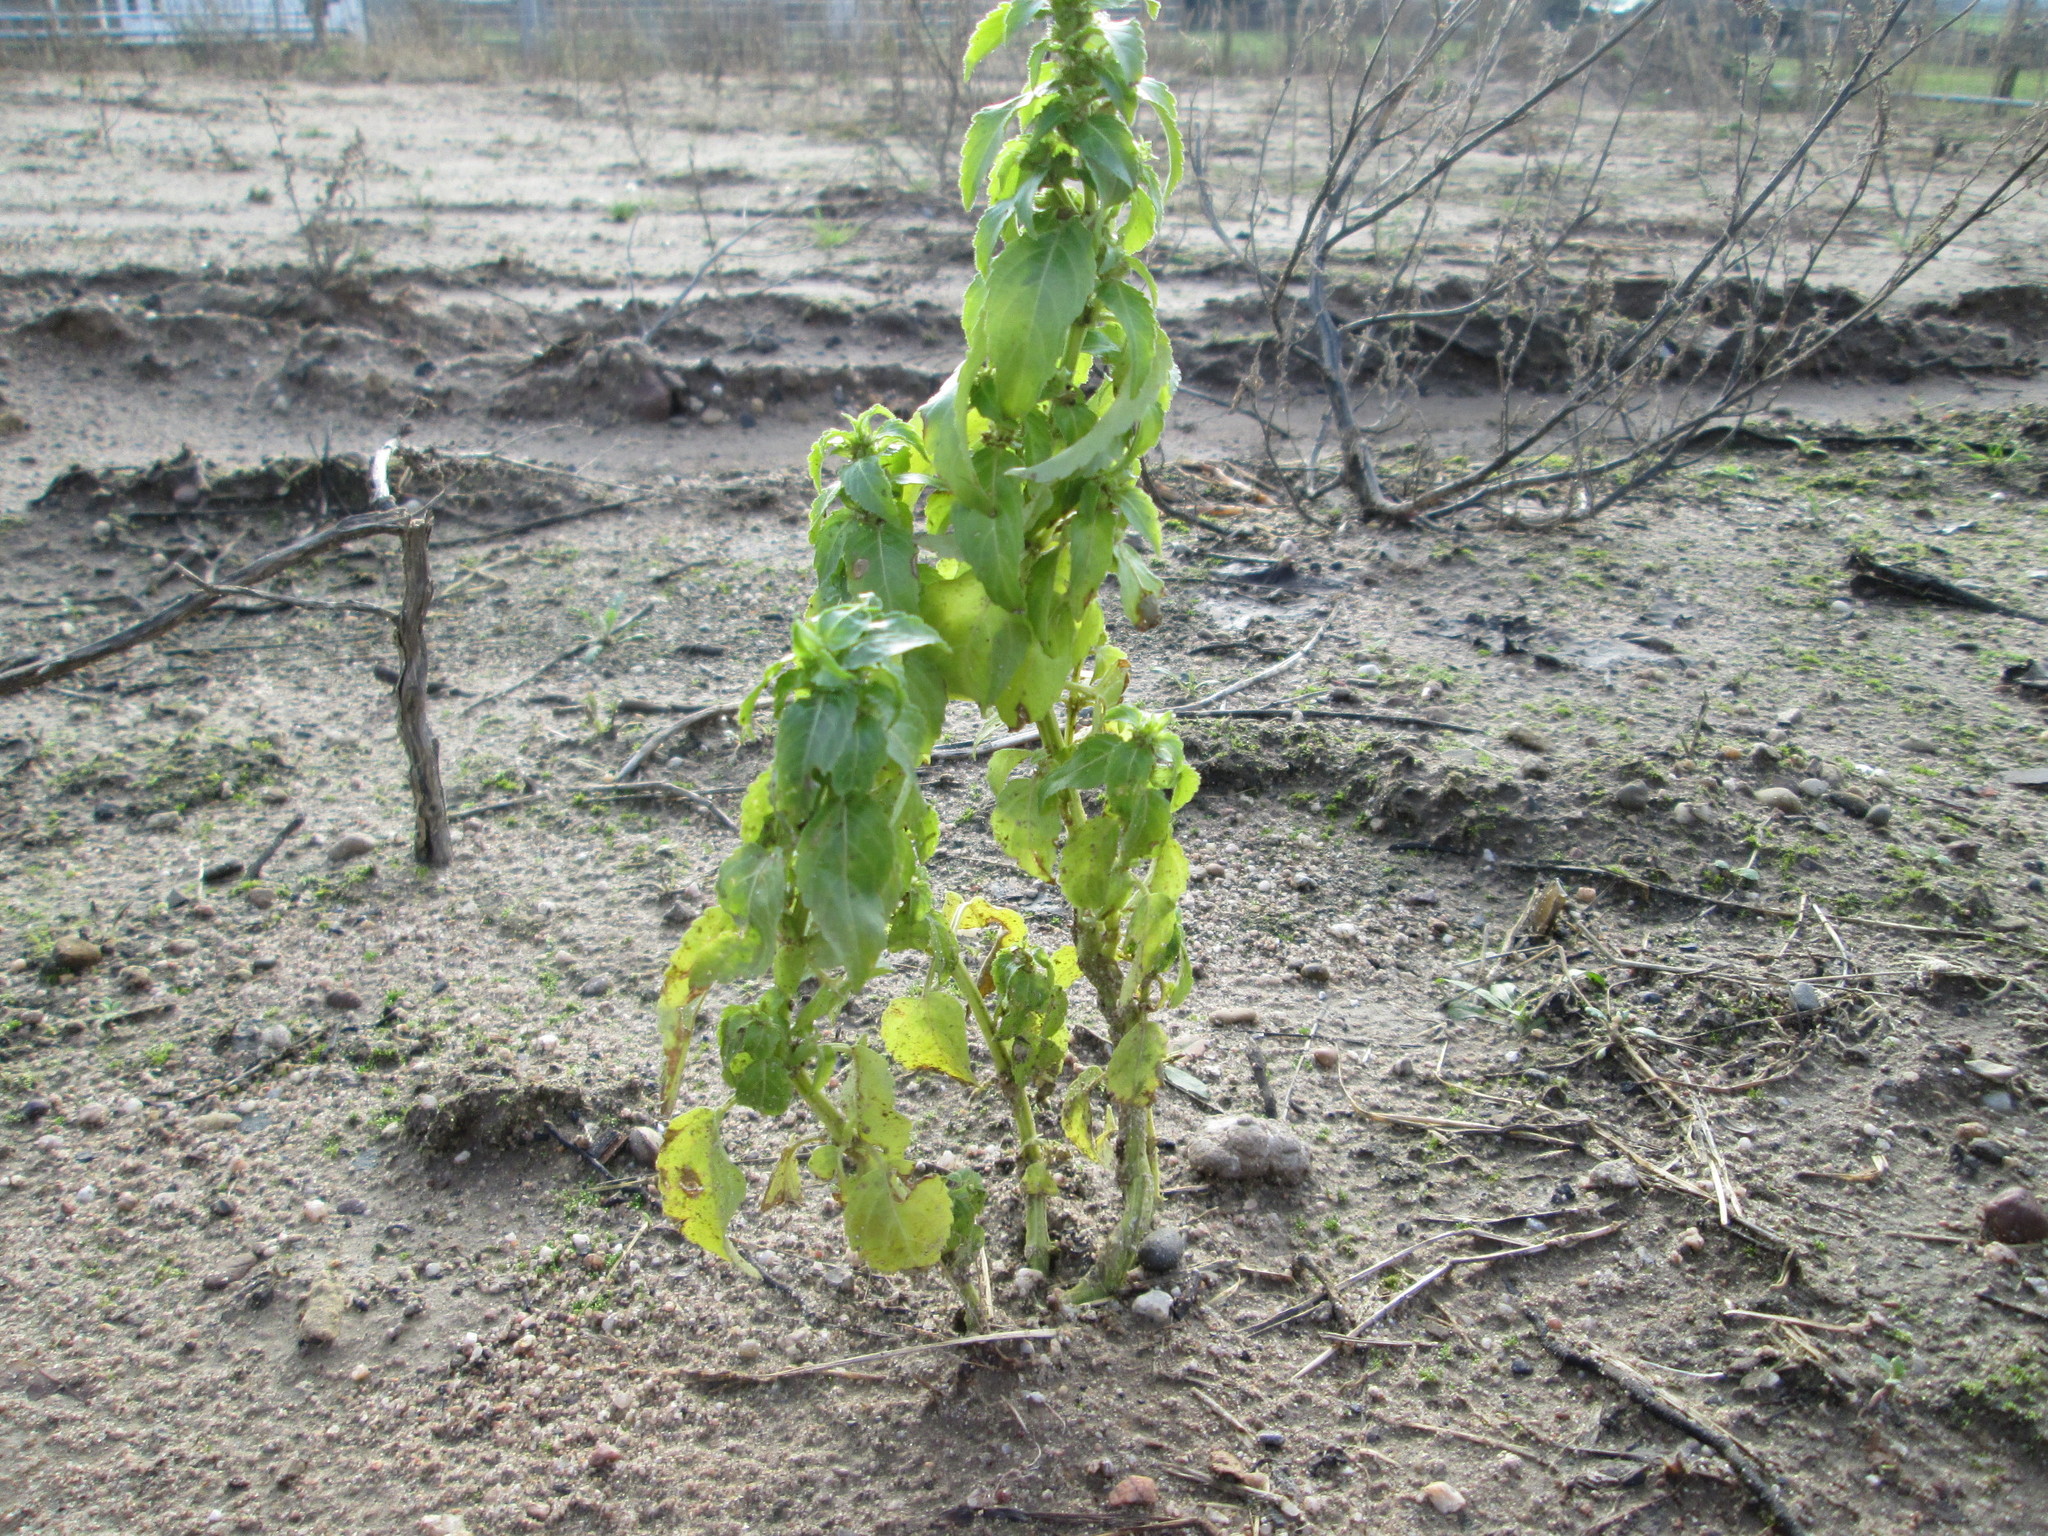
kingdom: Plantae
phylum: Tracheophyta
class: Magnoliopsida
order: Malpighiales
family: Euphorbiaceae
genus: Mercurialis
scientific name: Mercurialis annua
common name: Annual mercury
